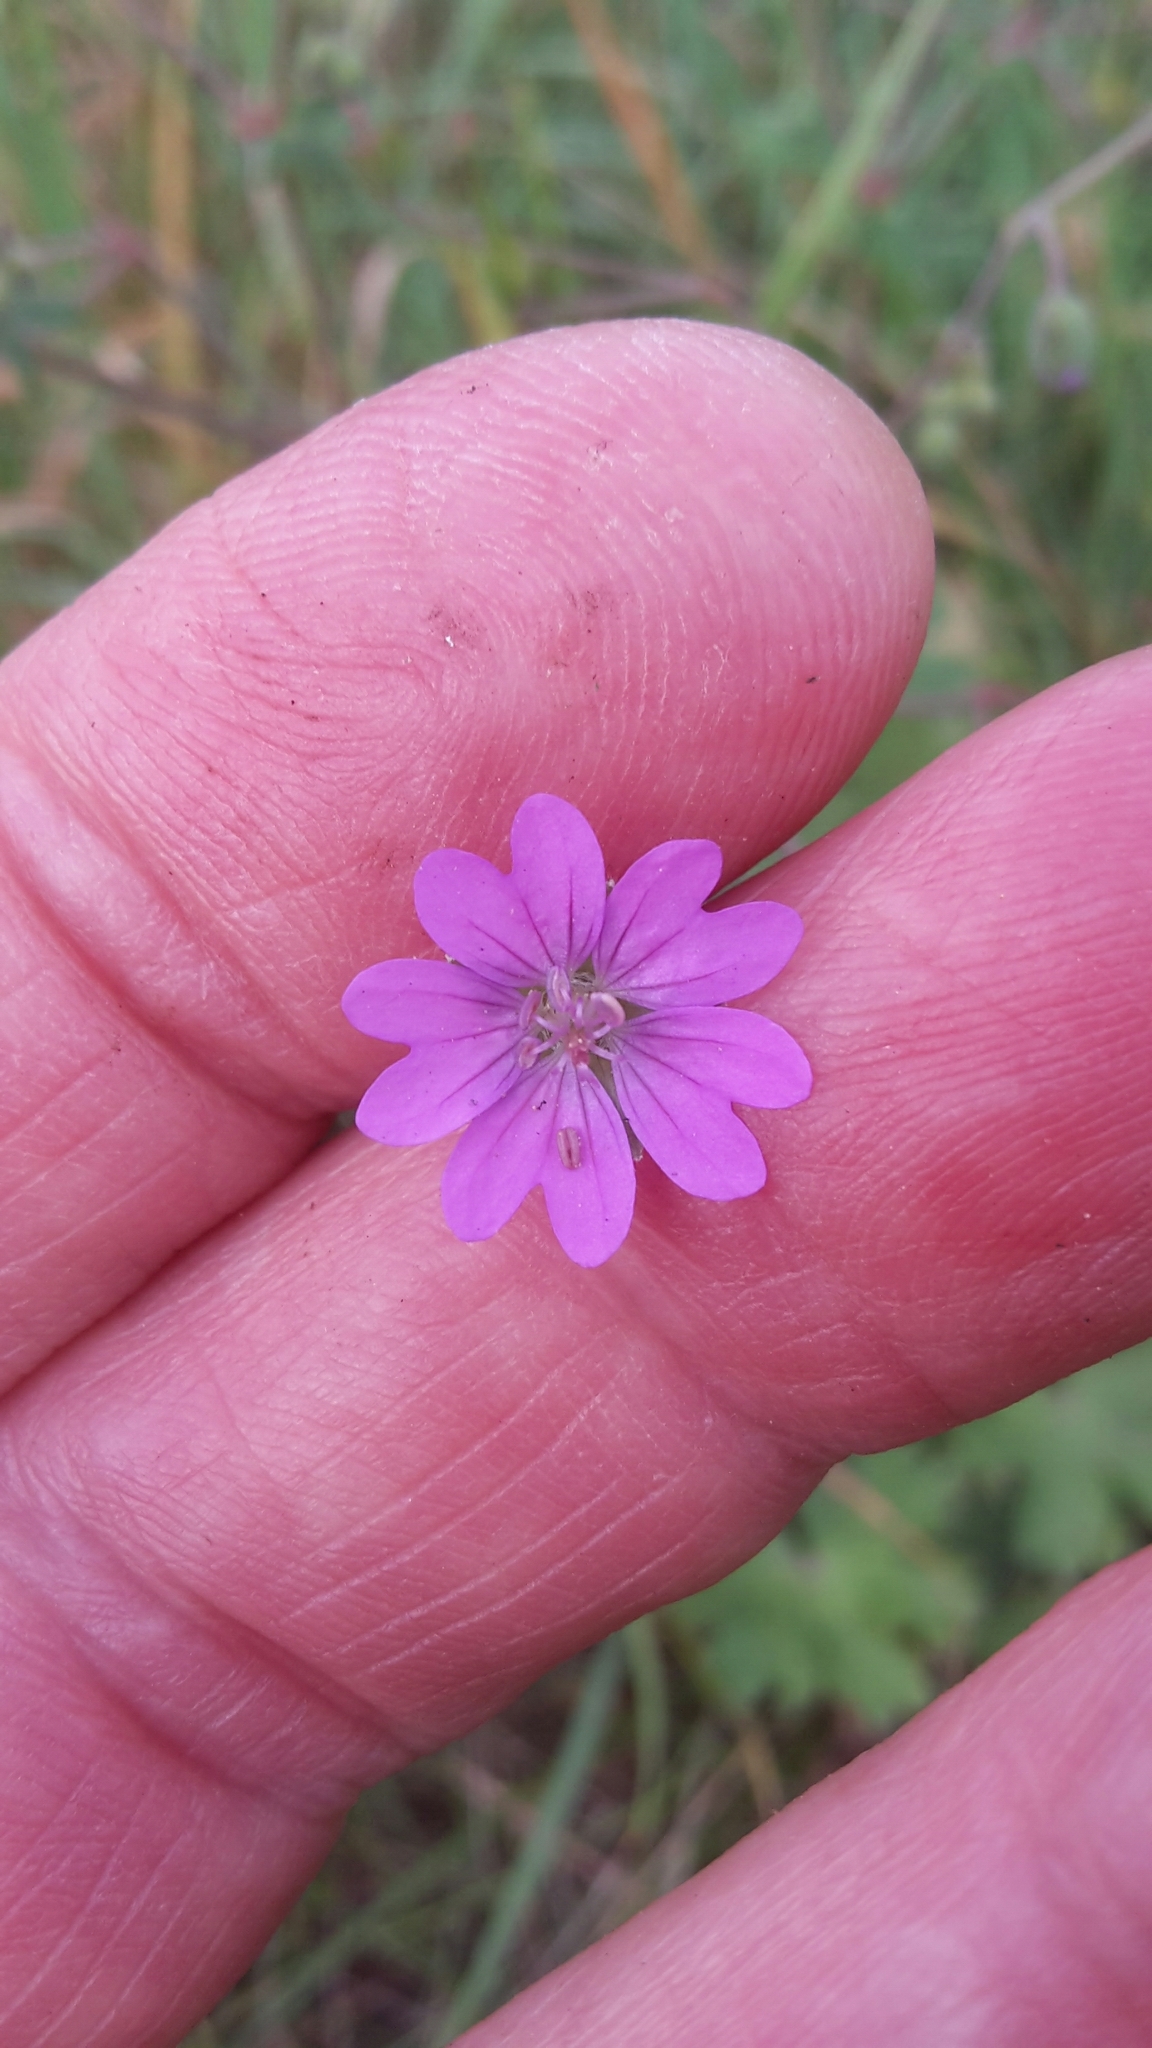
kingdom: Plantae
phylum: Tracheophyta
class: Magnoliopsida
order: Geraniales
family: Geraniaceae
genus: Geranium
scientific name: Geranium pyrenaicum
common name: Hedgerow crane's-bill
